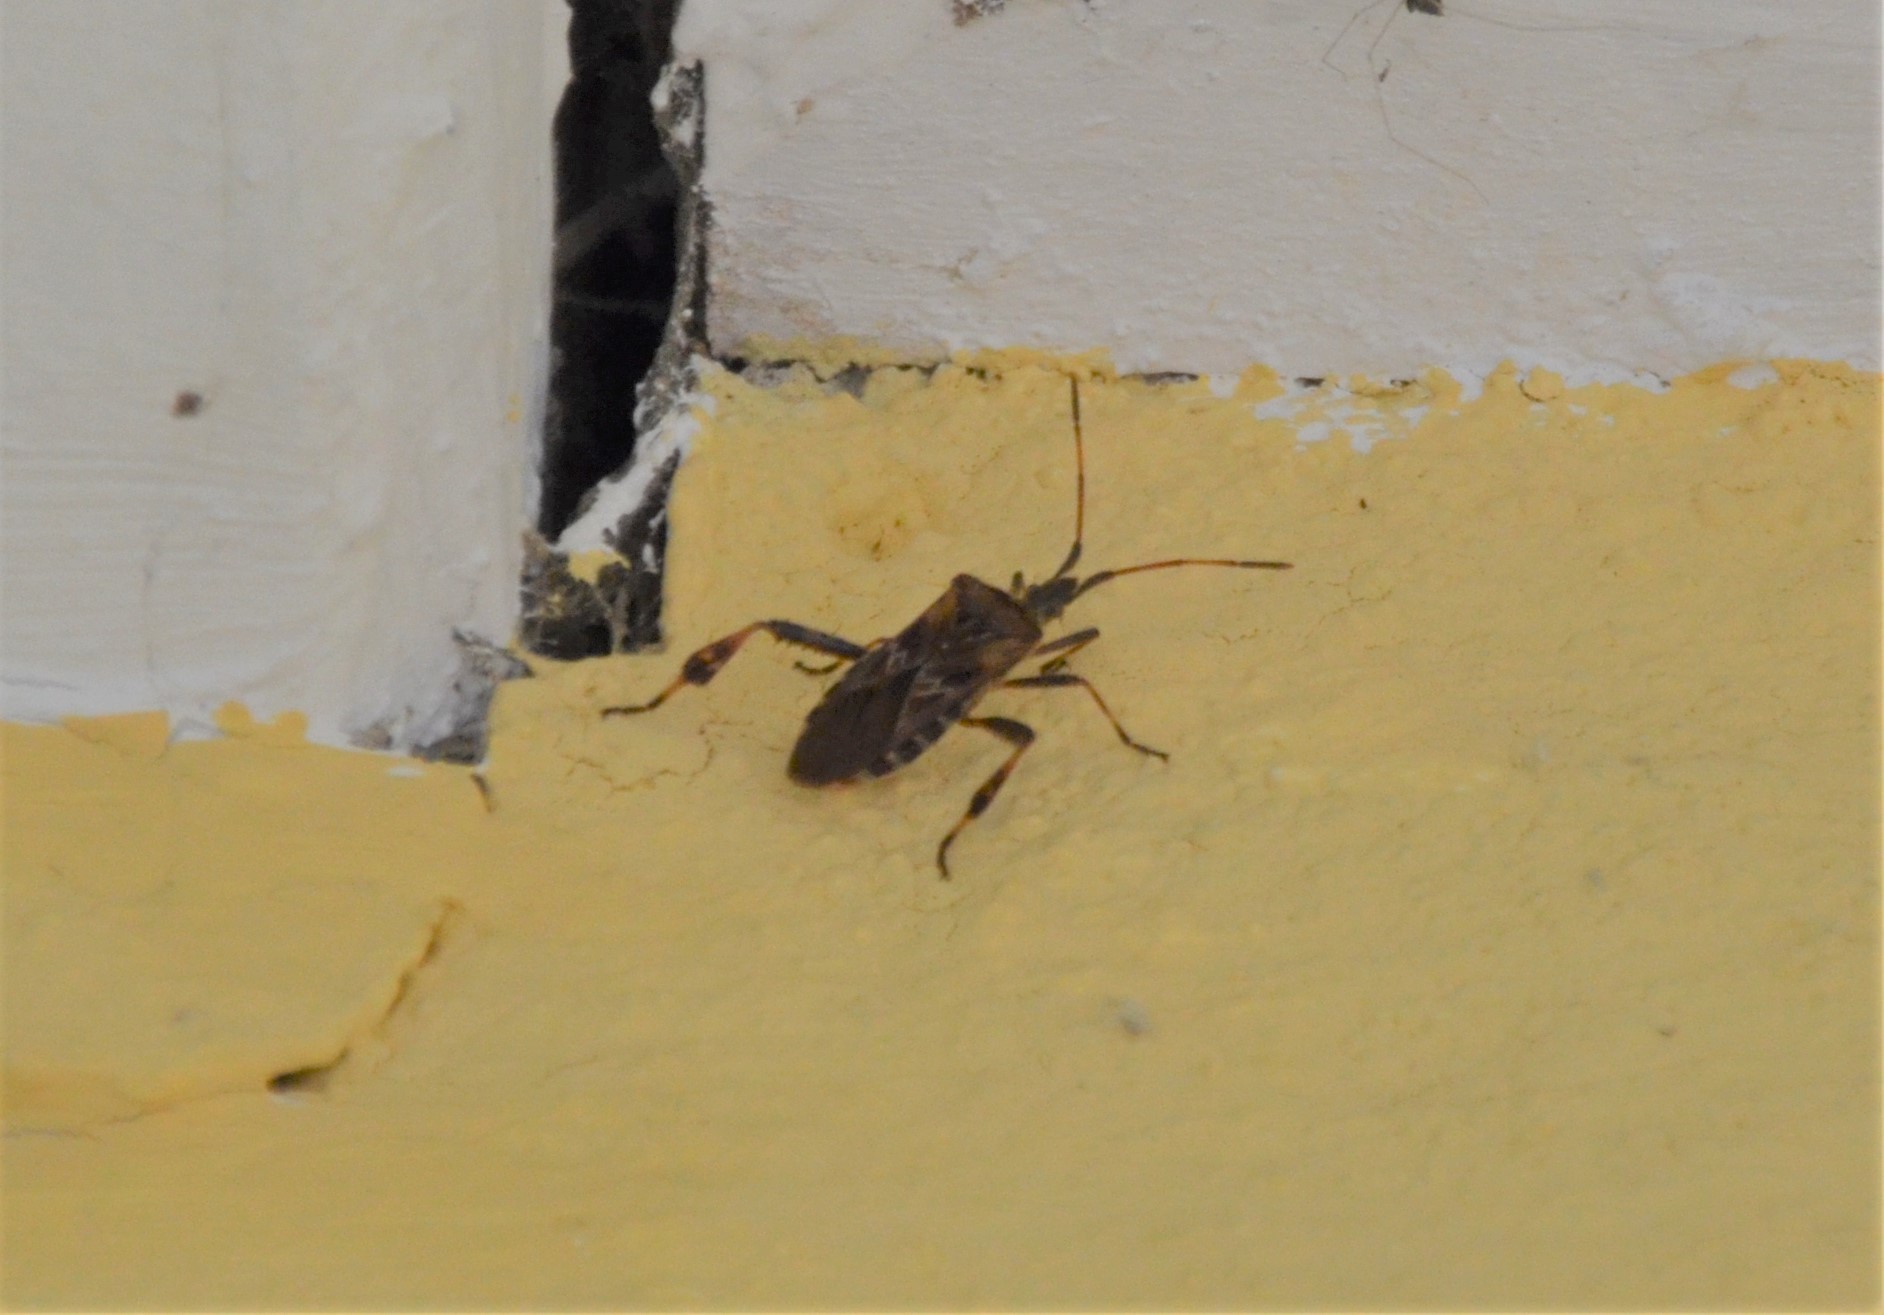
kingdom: Animalia
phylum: Arthropoda
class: Insecta
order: Hemiptera
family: Coreidae
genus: Leptoglossus
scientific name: Leptoglossus occidentalis
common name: Western conifer-seed bug
